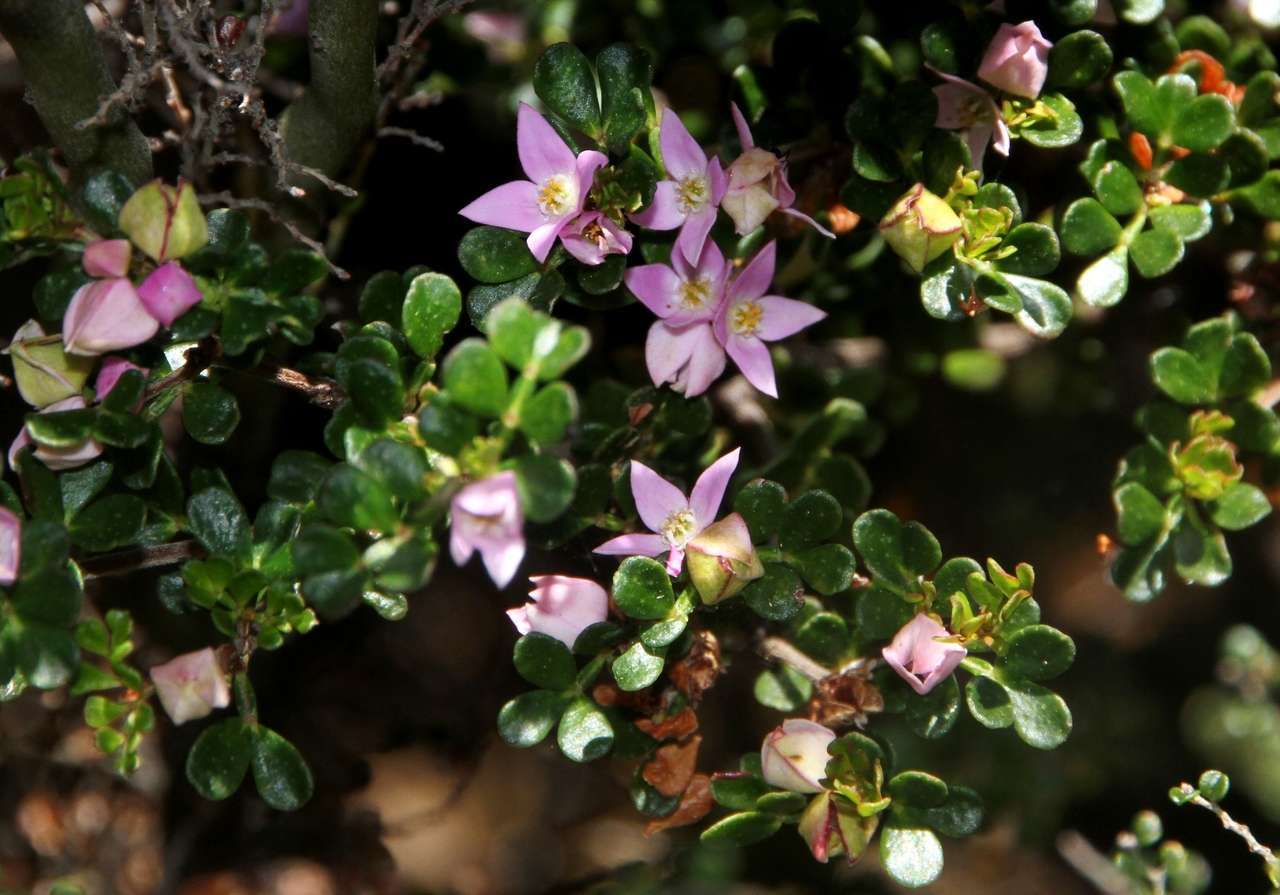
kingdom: Plantae
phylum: Tracheophyta
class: Magnoliopsida
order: Sapindales
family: Rutaceae
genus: Boronia
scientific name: Boronia algida
